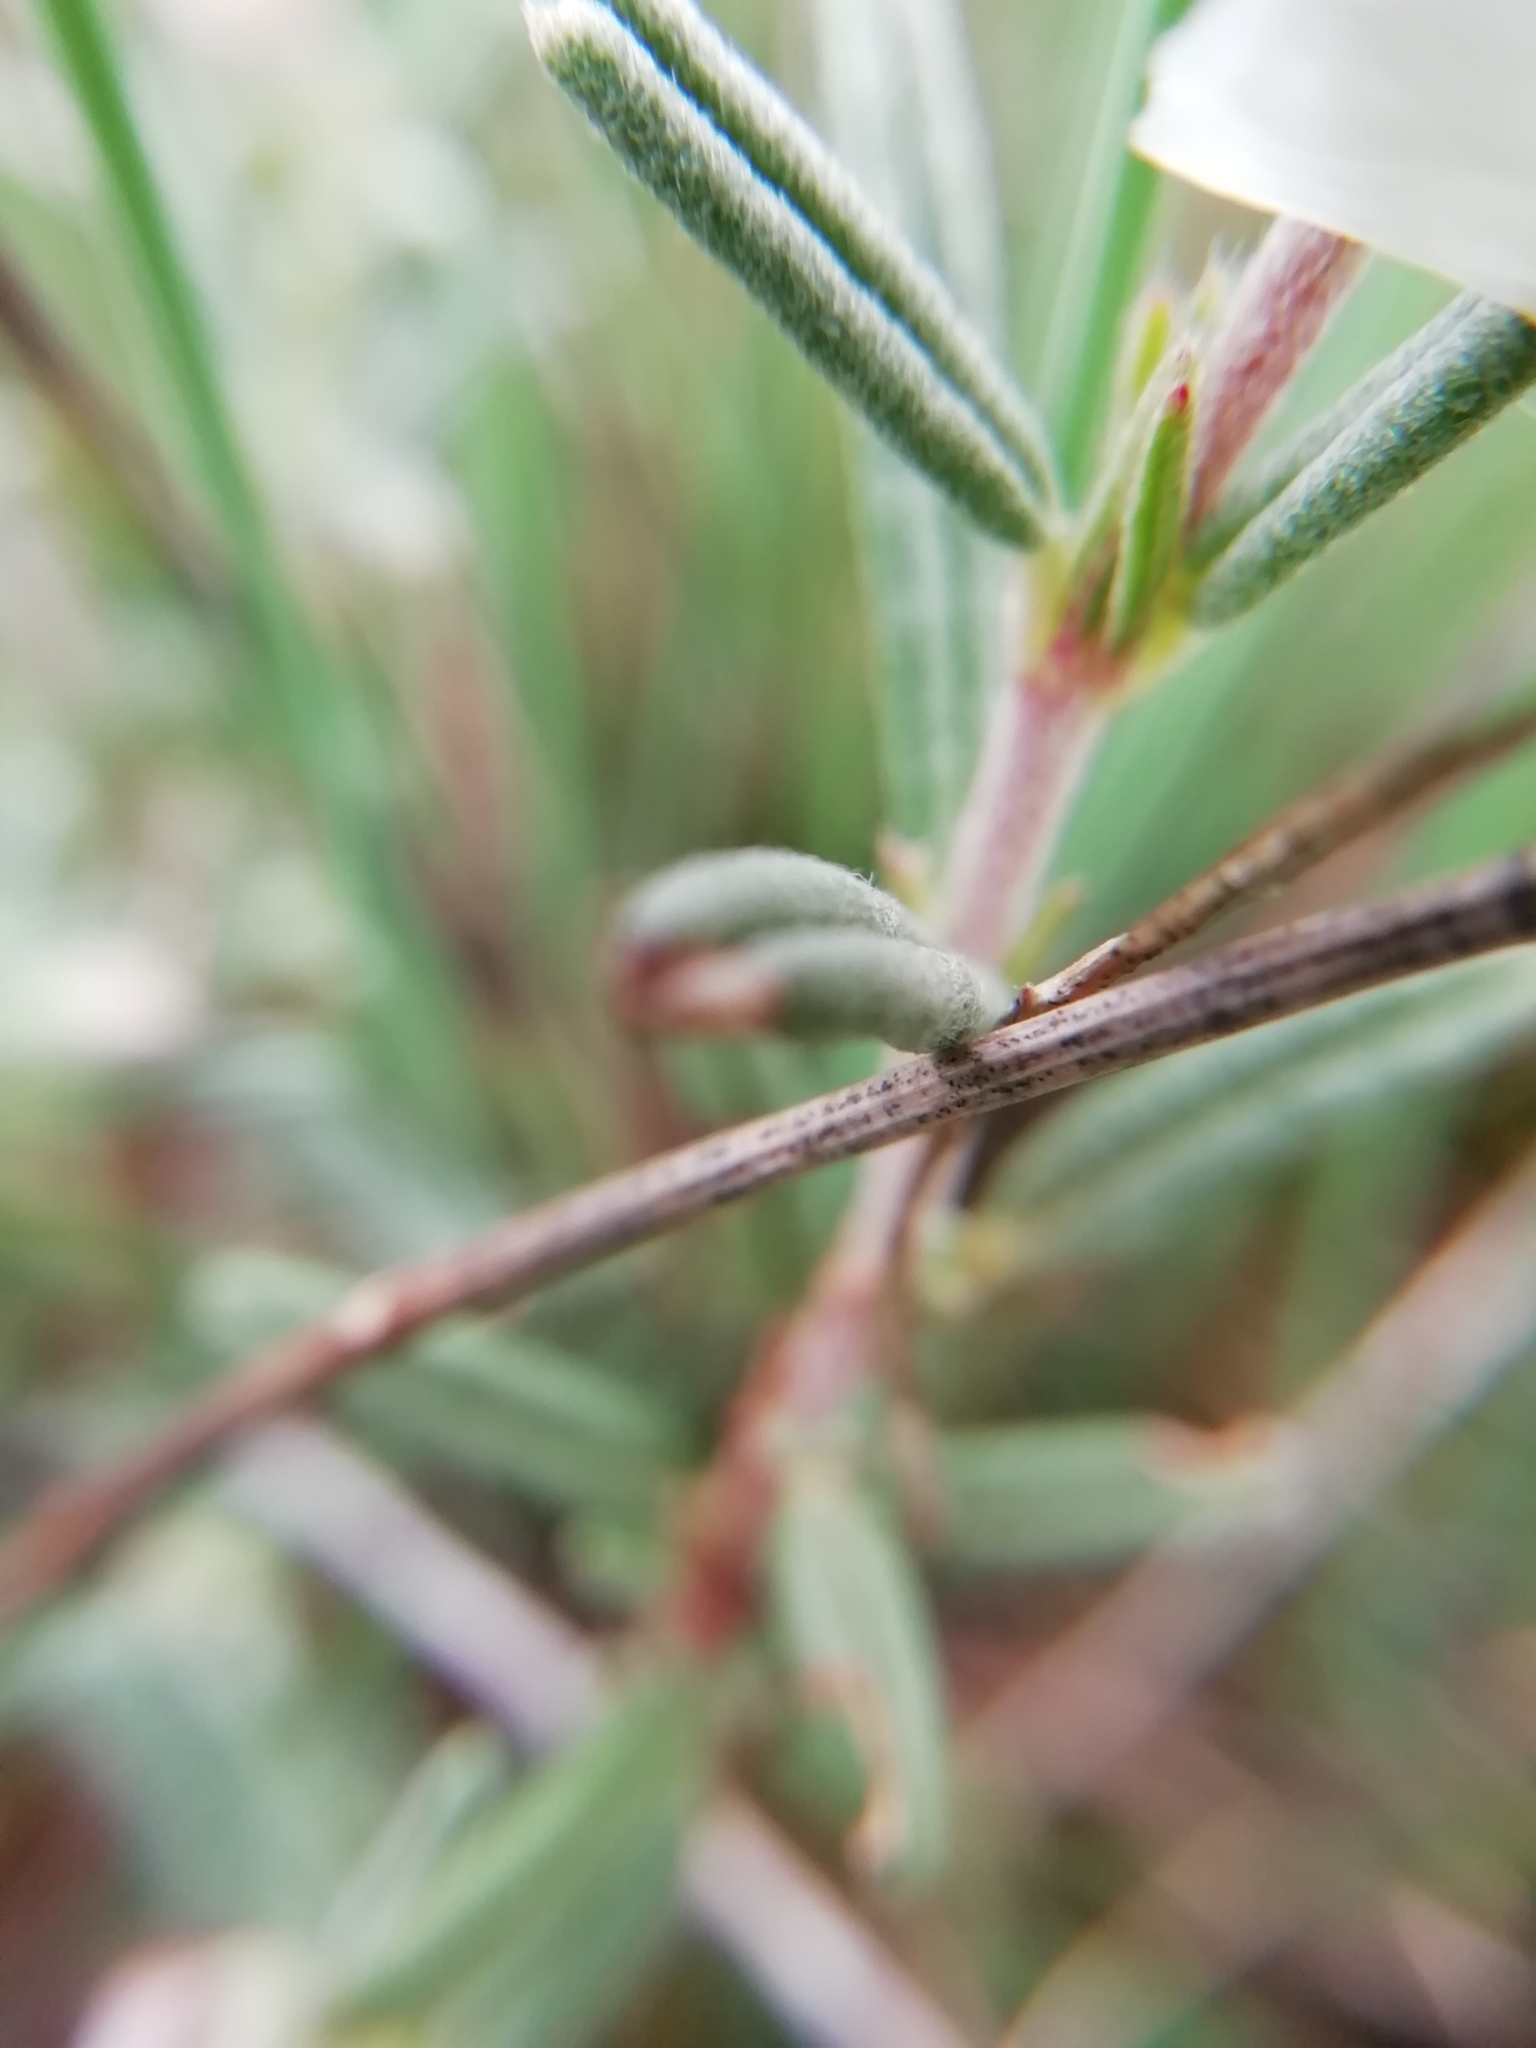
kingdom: Plantae
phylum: Tracheophyta
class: Magnoliopsida
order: Malvales
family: Cistaceae
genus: Helianthemum
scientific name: Helianthemum apenninum
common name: White rock-rose
